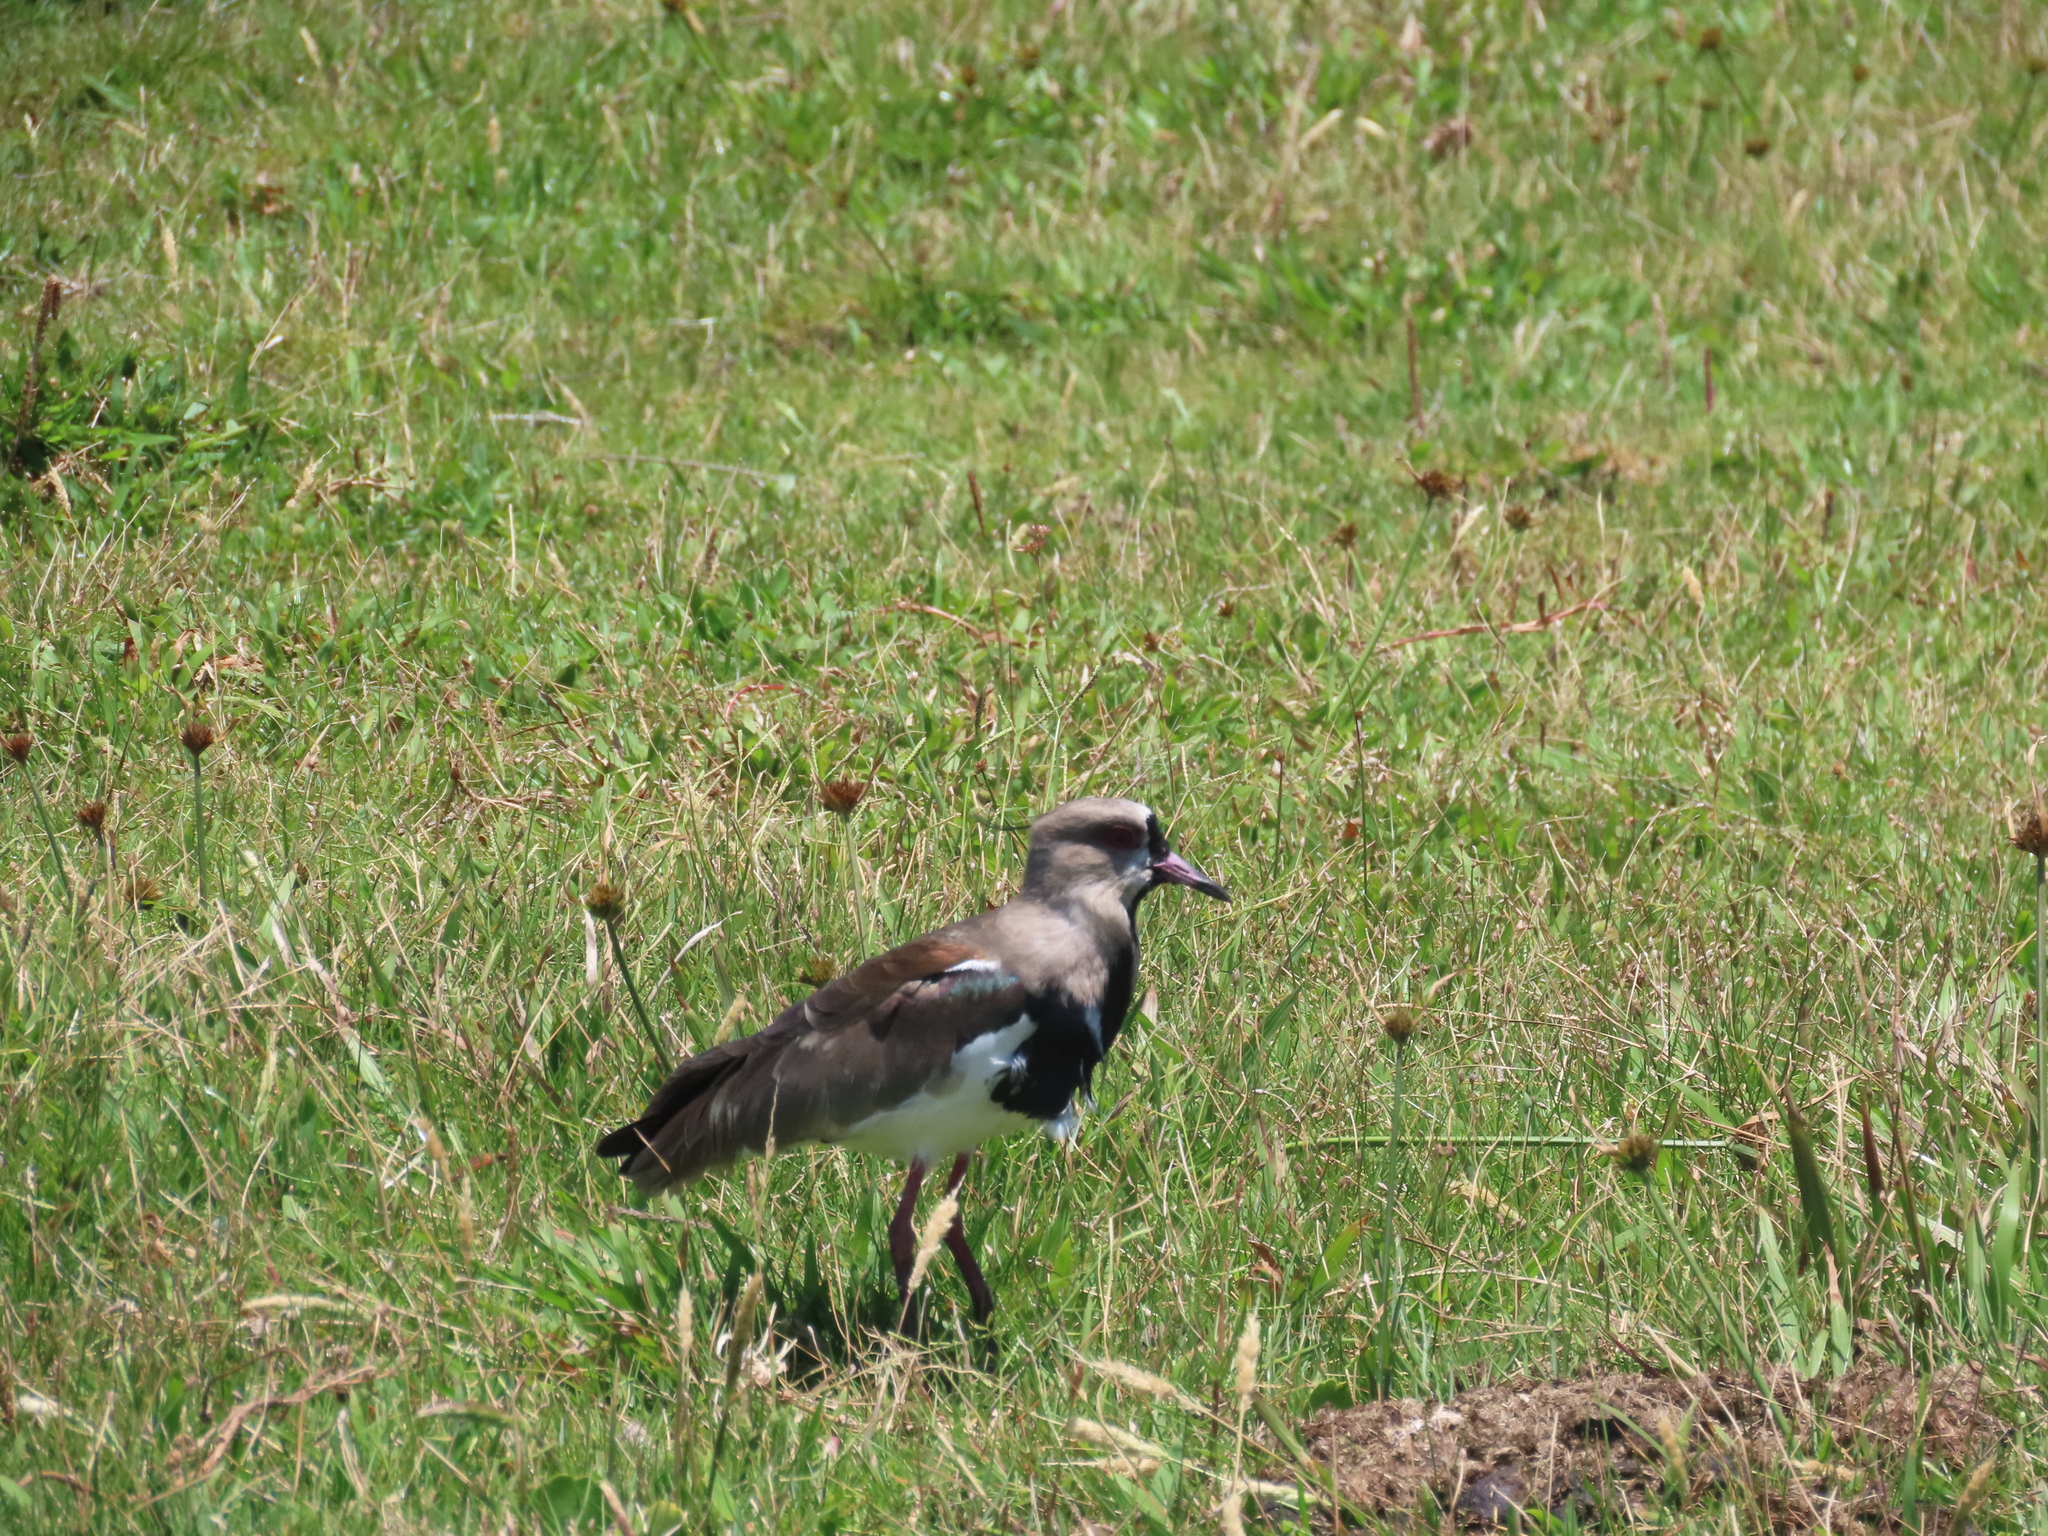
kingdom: Animalia
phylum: Chordata
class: Aves
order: Charadriiformes
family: Charadriidae
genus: Vanellus
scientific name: Vanellus chilensis
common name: Southern lapwing
